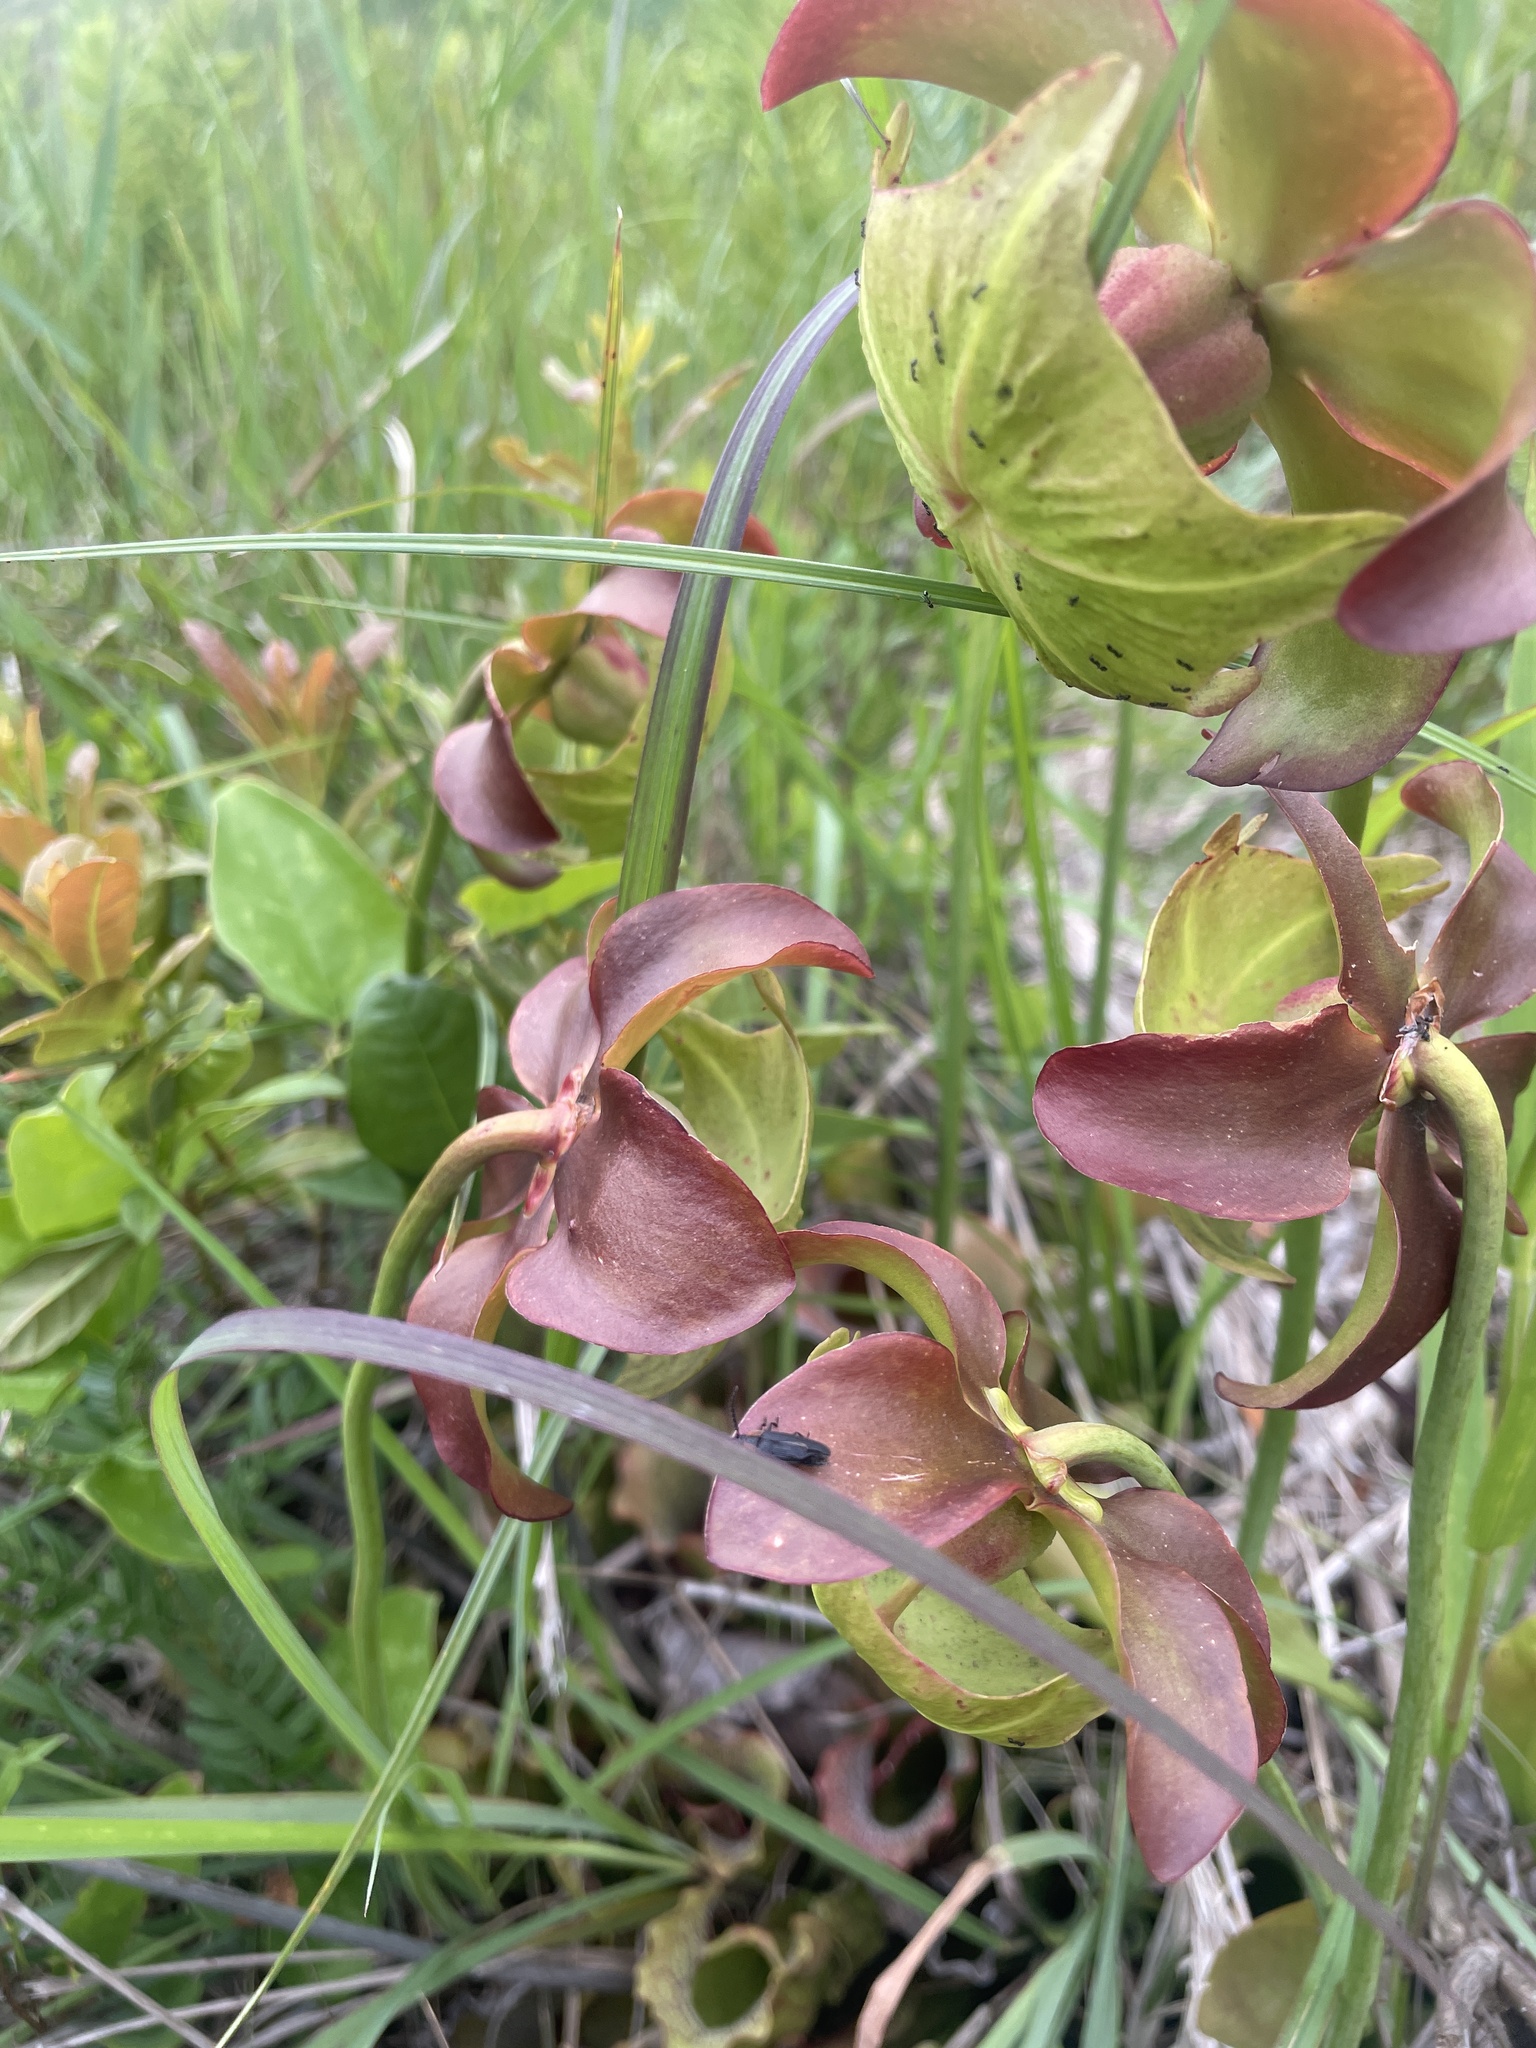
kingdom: Plantae
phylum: Tracheophyta
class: Magnoliopsida
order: Ericales
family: Sarraceniaceae
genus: Sarracenia
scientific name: Sarracenia purpurea
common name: Pitcherplant
